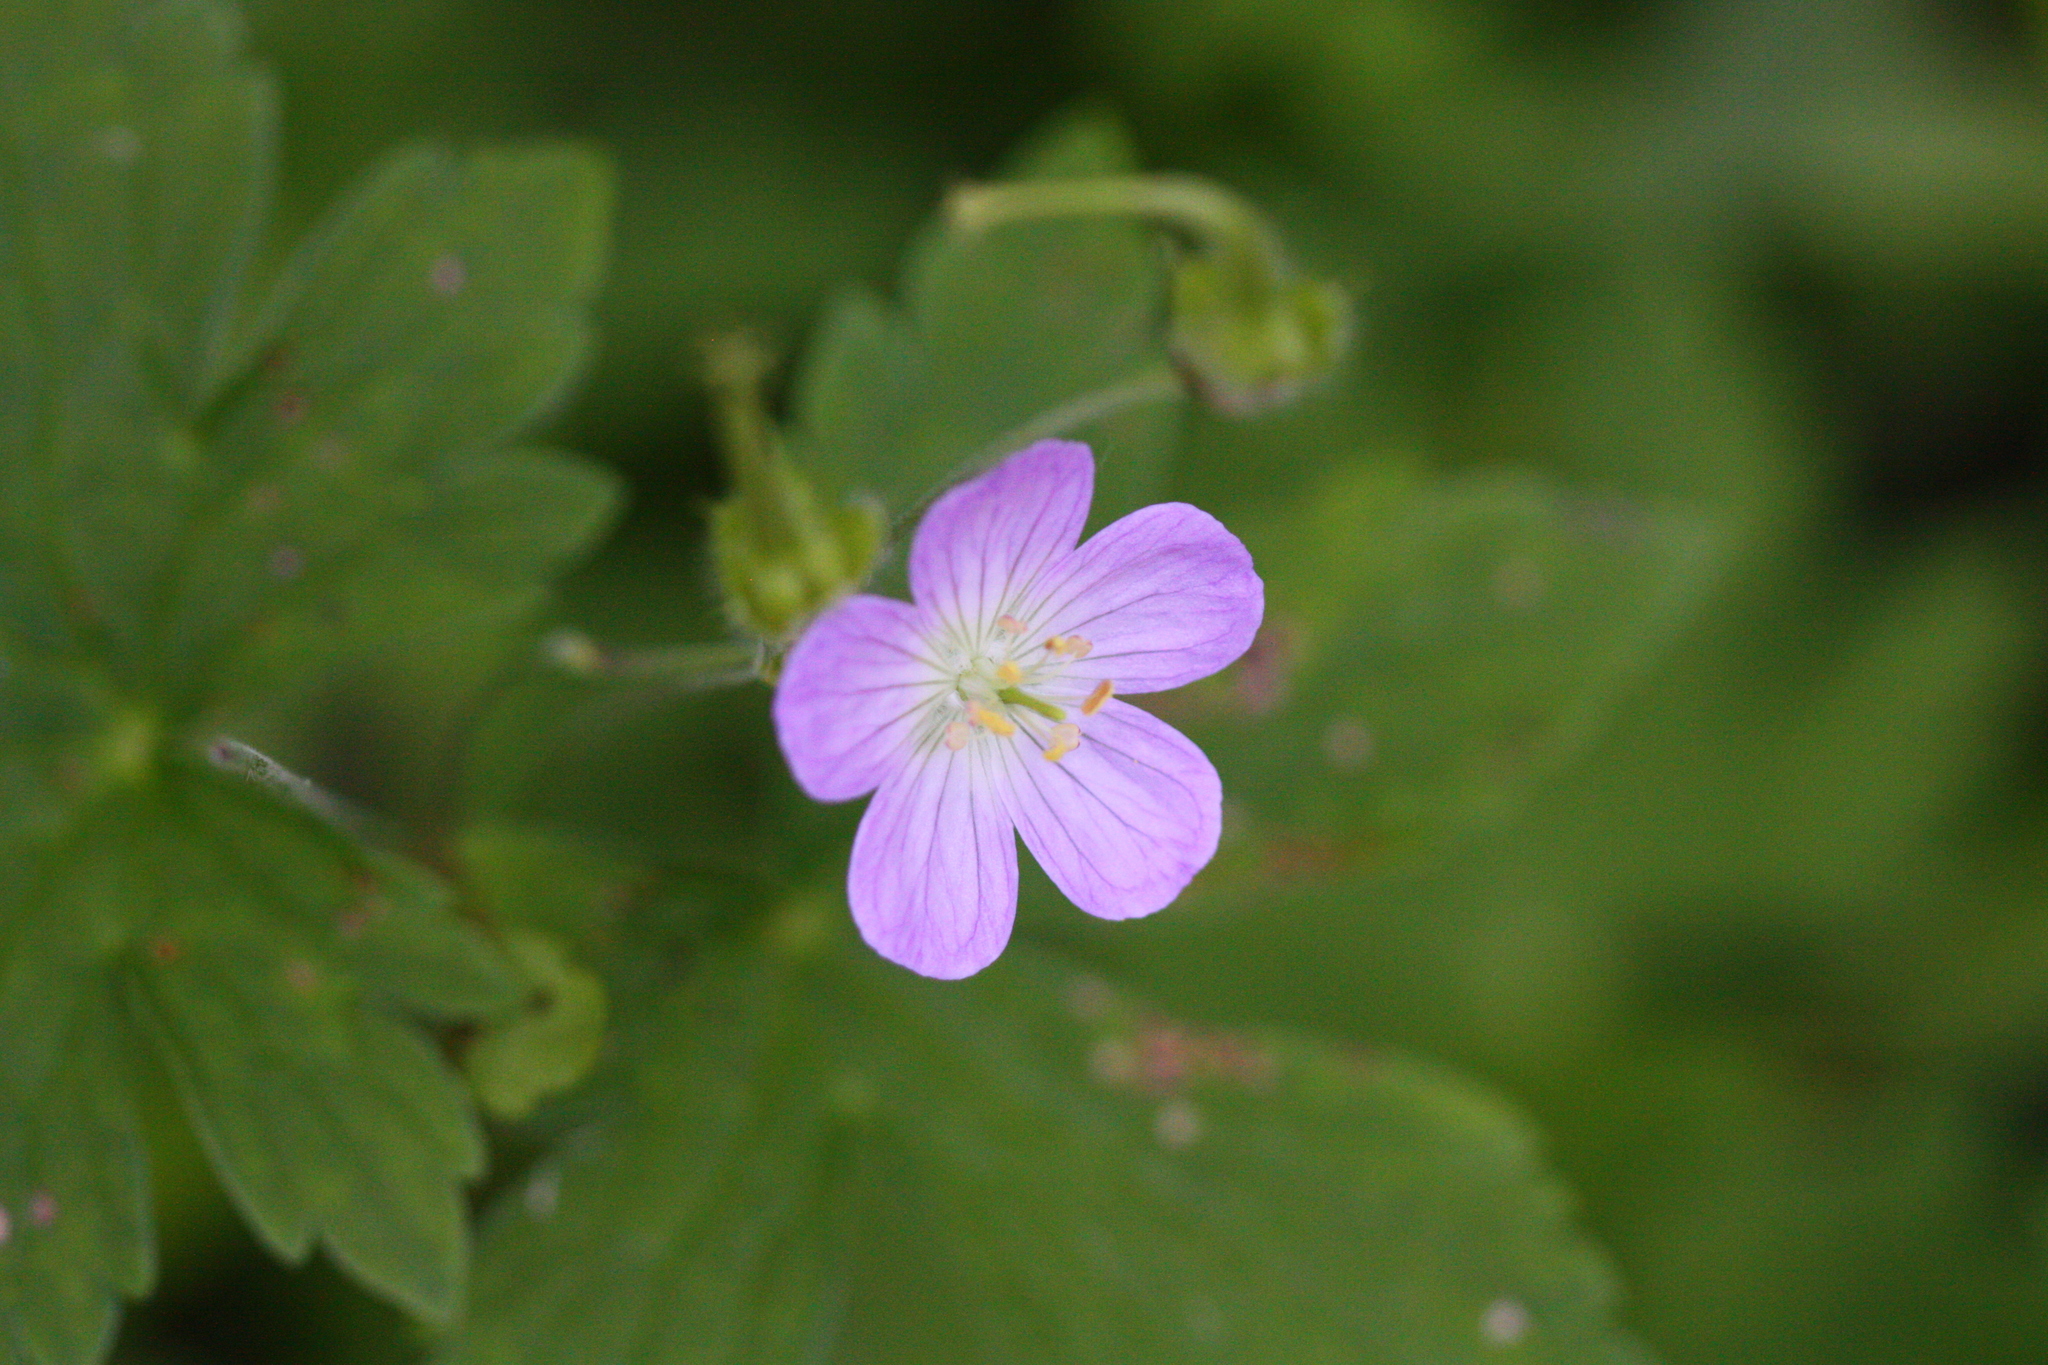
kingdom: Plantae
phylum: Tracheophyta
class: Magnoliopsida
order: Geraniales
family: Geraniaceae
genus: Geranium
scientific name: Geranium maculatum
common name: Spotted geranium
